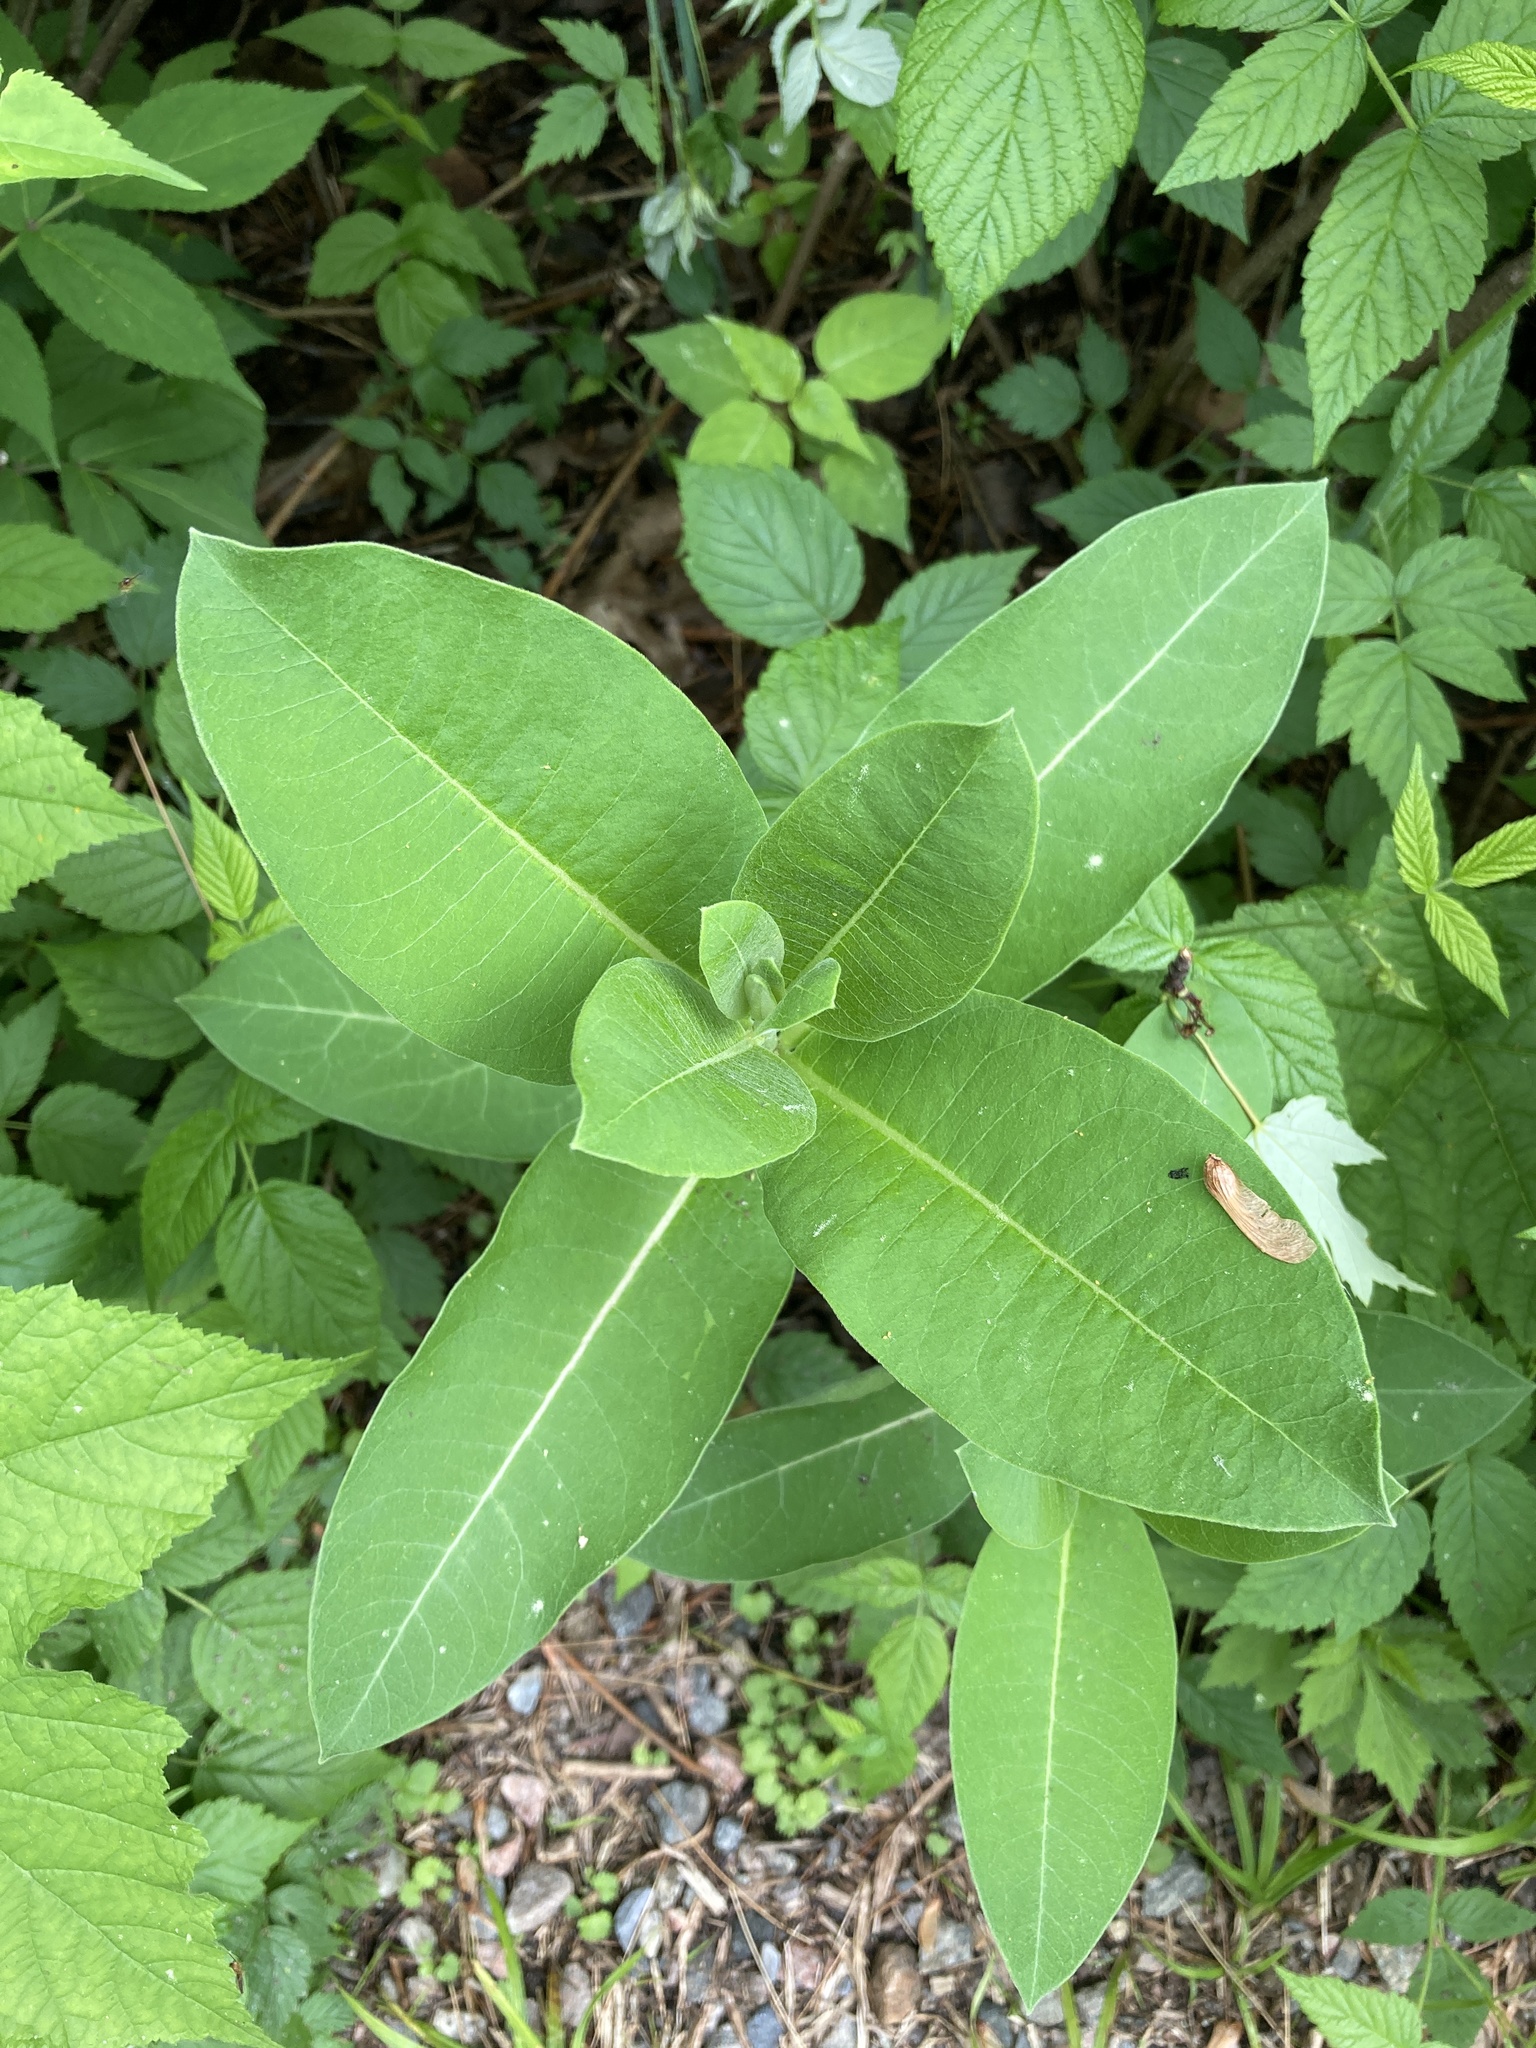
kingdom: Plantae
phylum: Tracheophyta
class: Magnoliopsida
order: Gentianales
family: Apocynaceae
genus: Asclepias
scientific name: Asclepias syriaca
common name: Common milkweed
